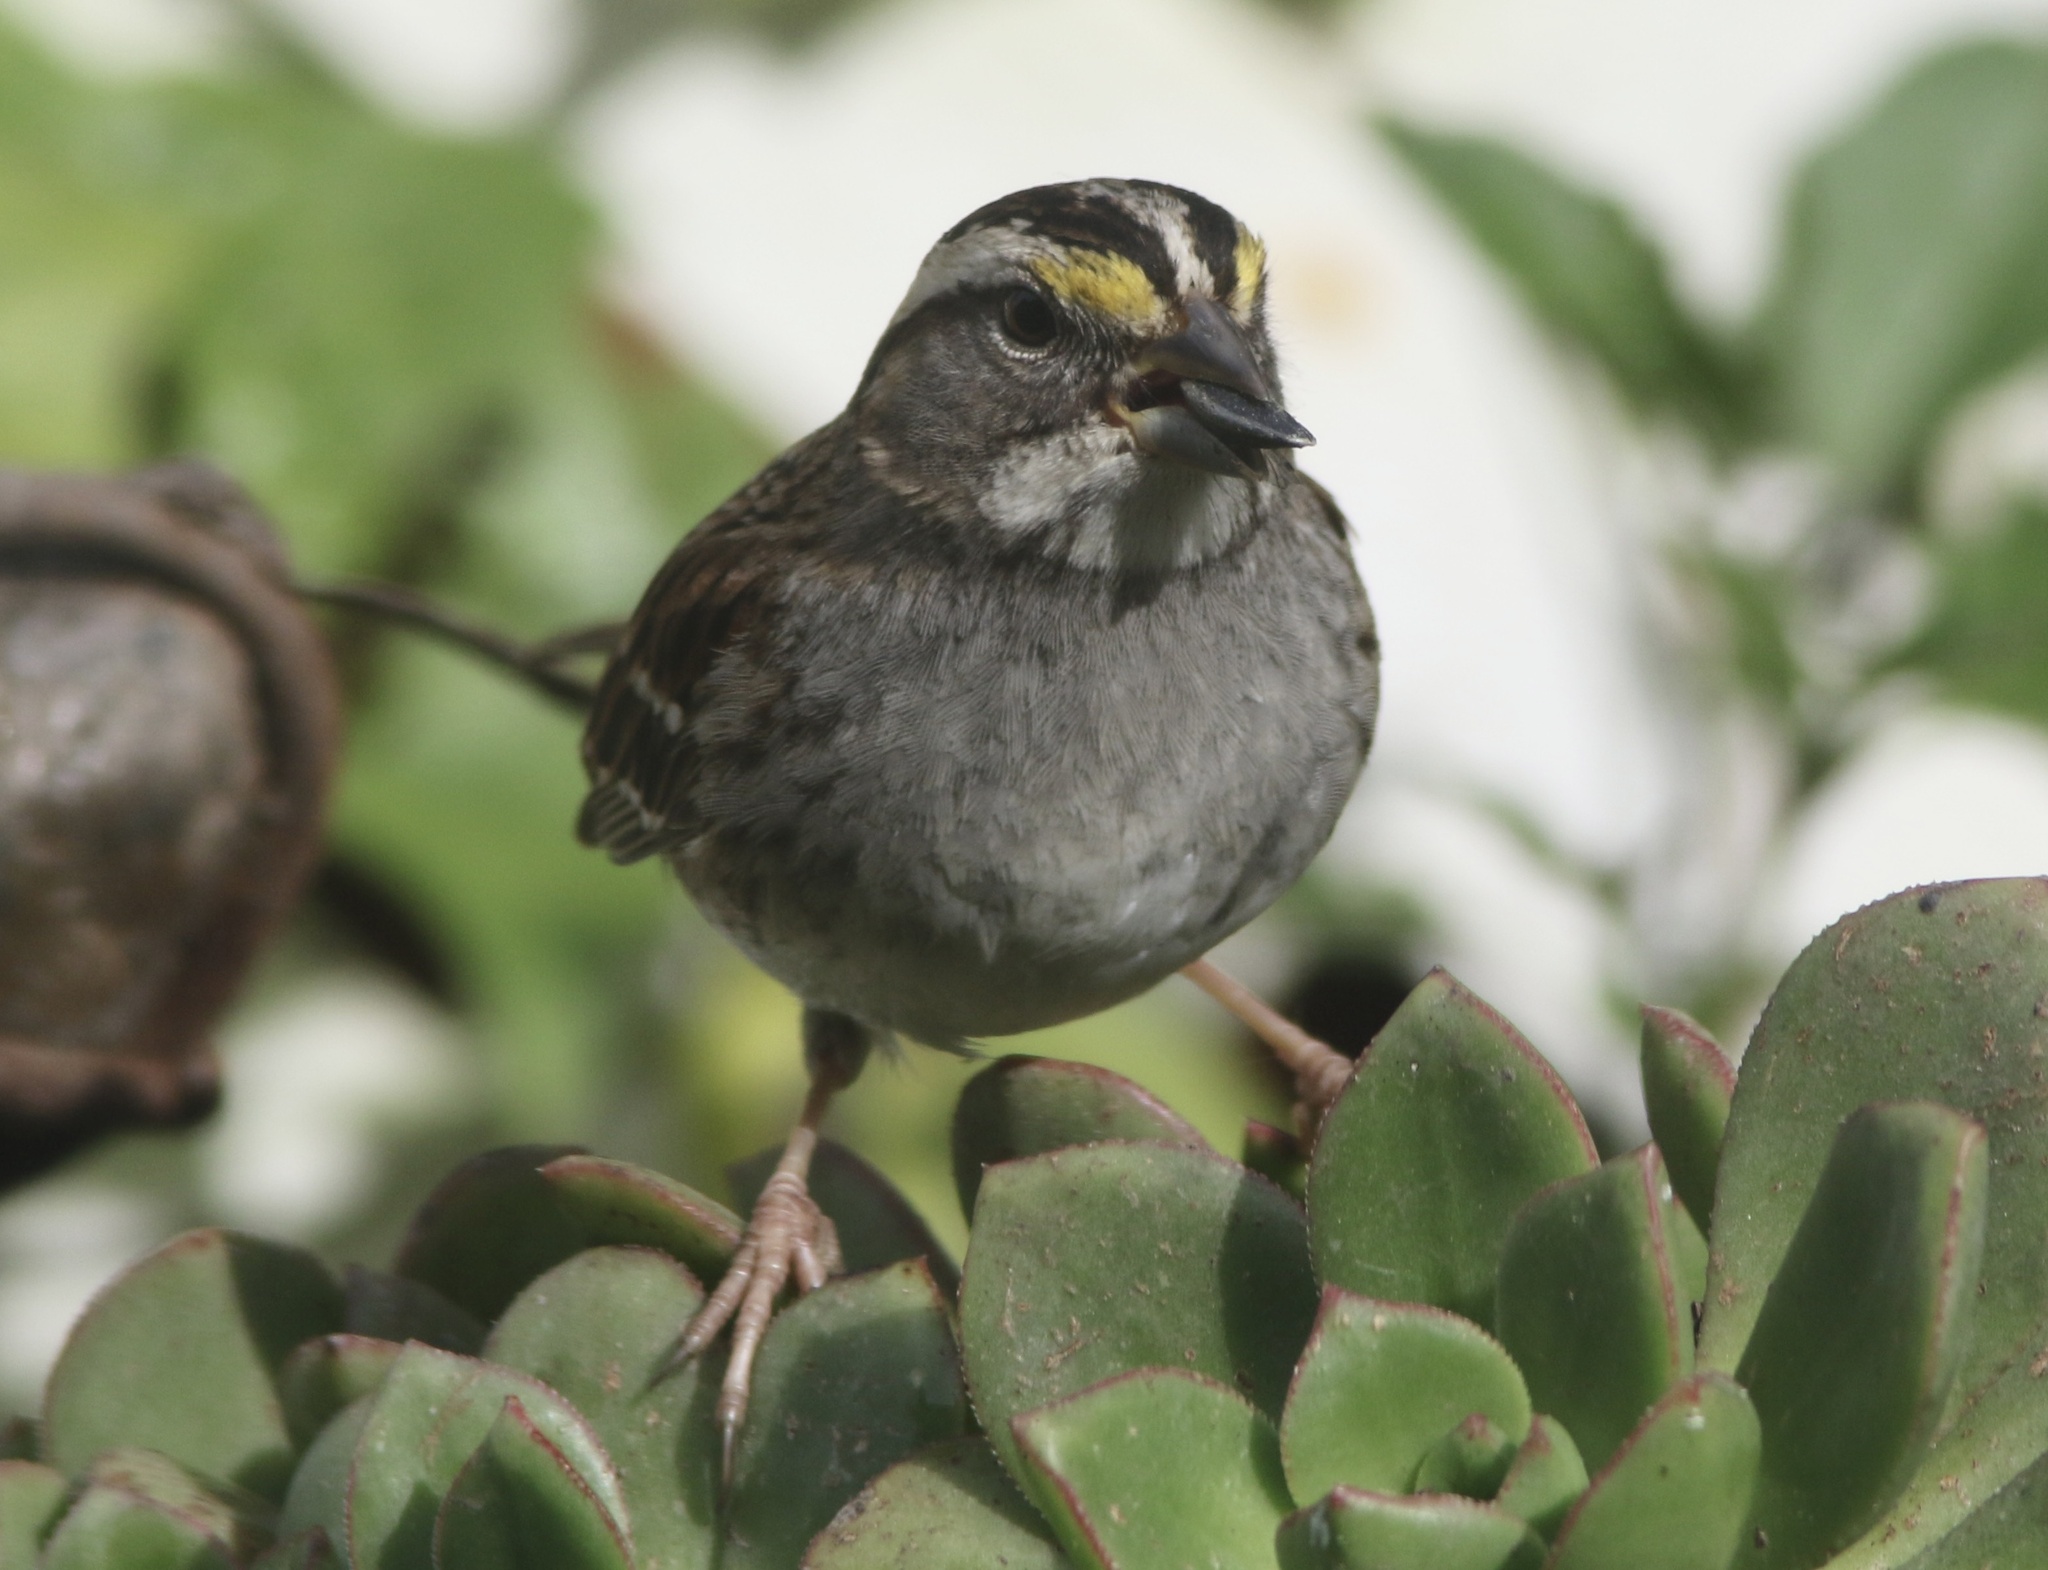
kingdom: Animalia
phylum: Chordata
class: Aves
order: Passeriformes
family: Passerellidae
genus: Zonotrichia
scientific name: Zonotrichia albicollis
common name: White-throated sparrow
